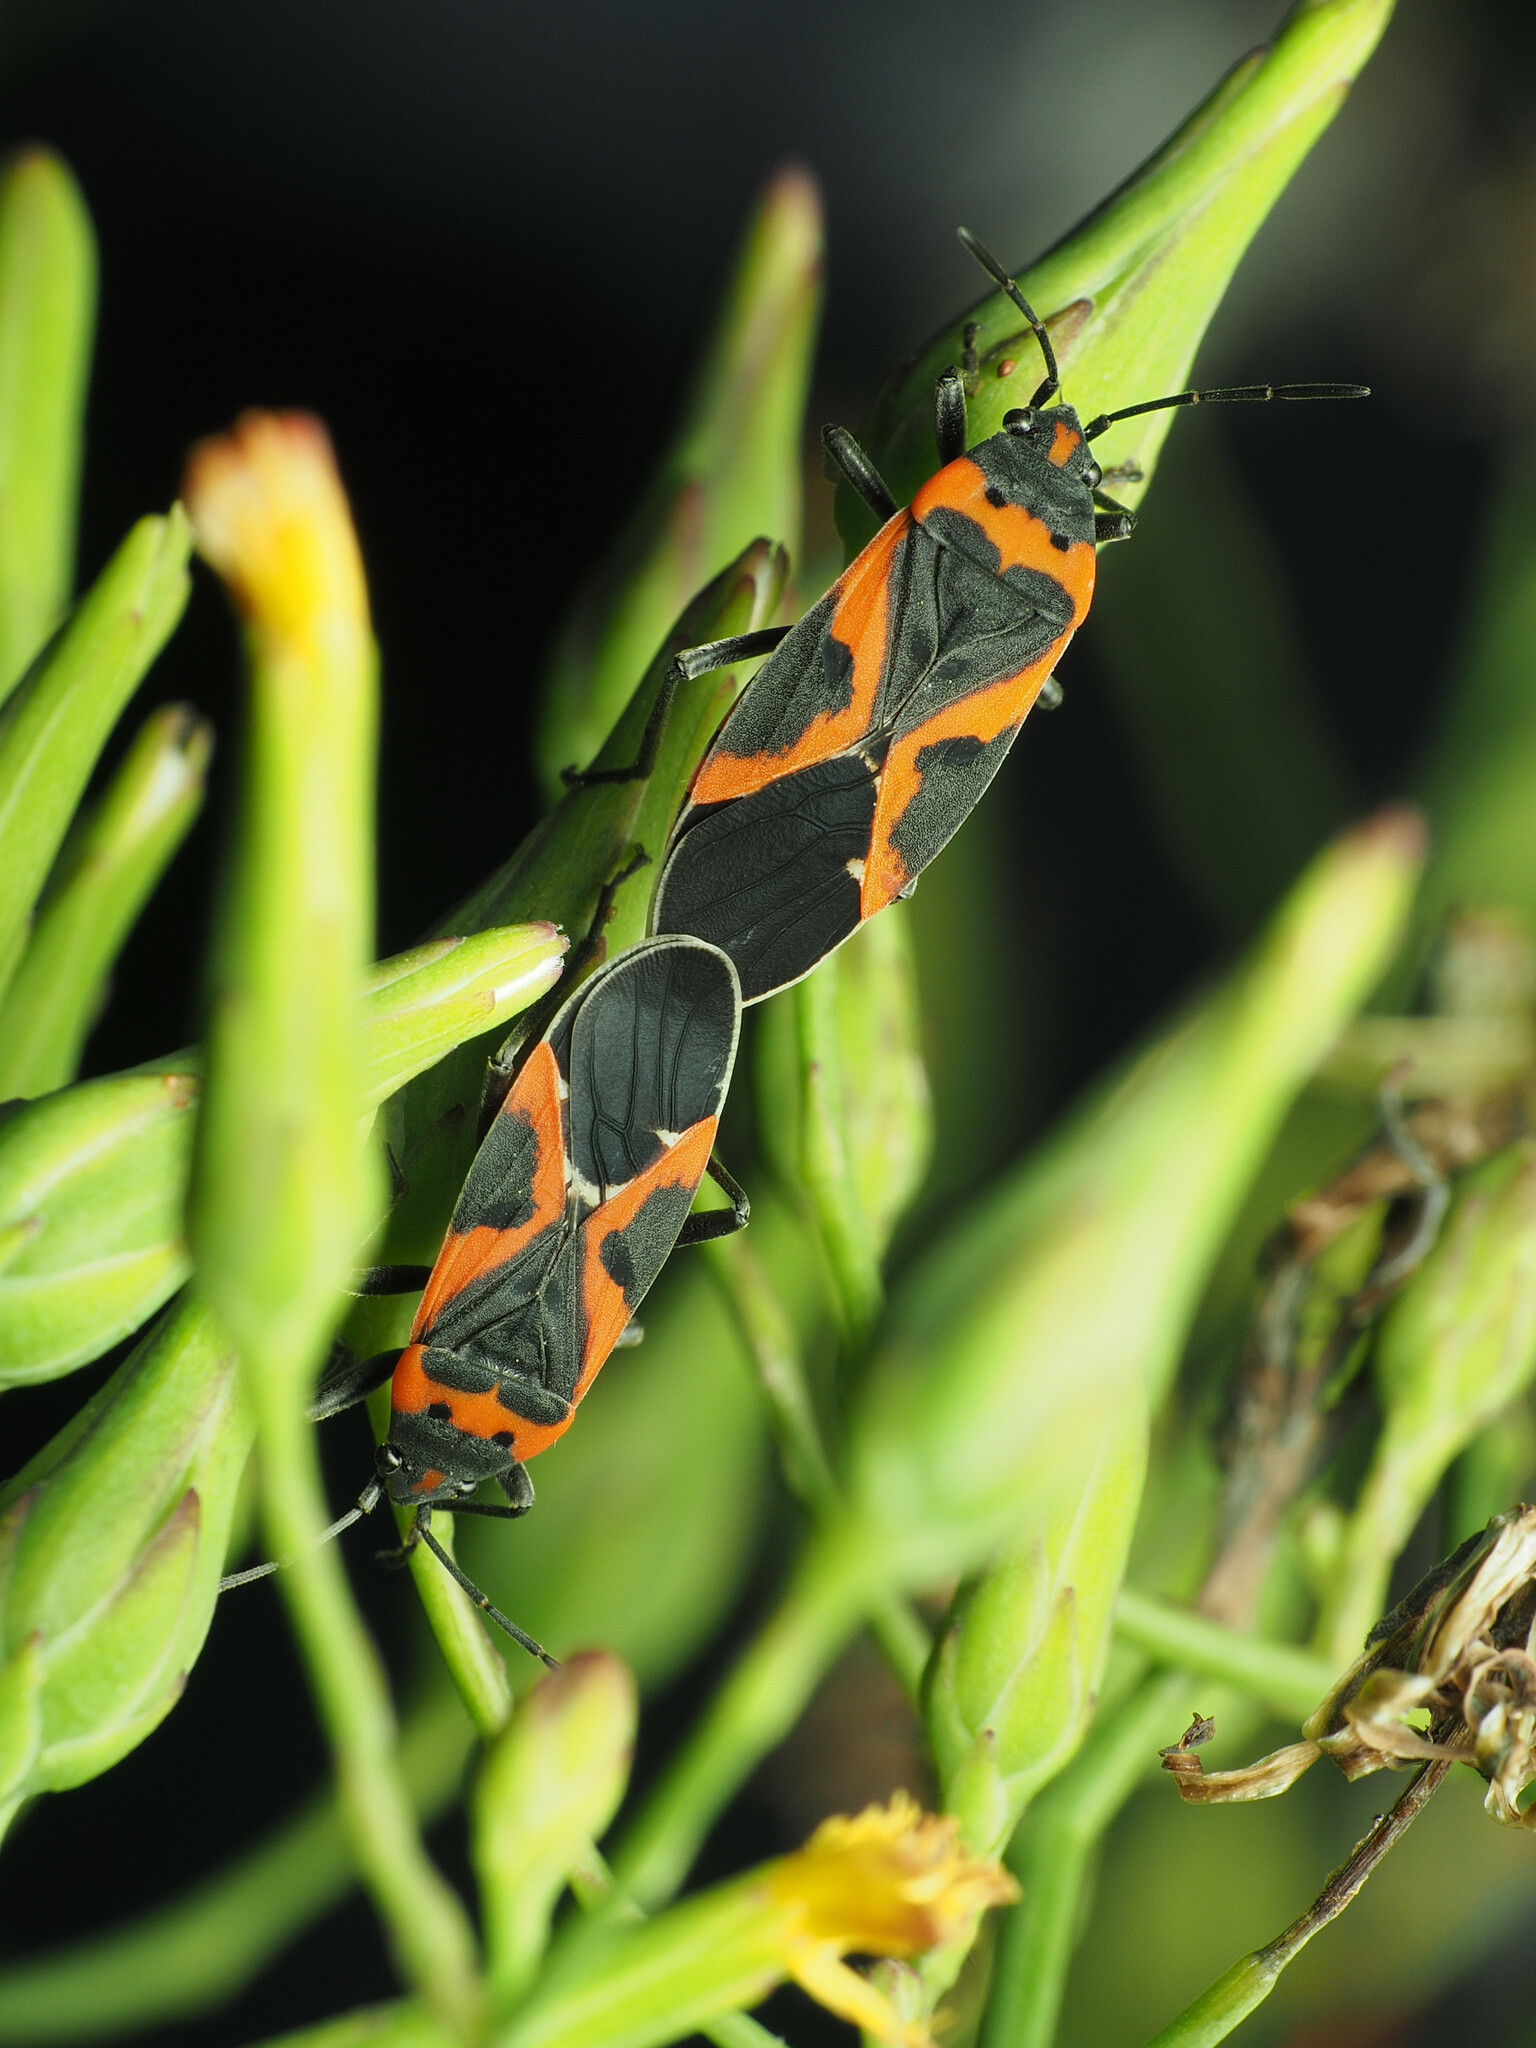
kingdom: Animalia
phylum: Arthropoda
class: Insecta
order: Hemiptera
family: Lygaeidae
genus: Lygaeus
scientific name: Lygaeus kalmii
